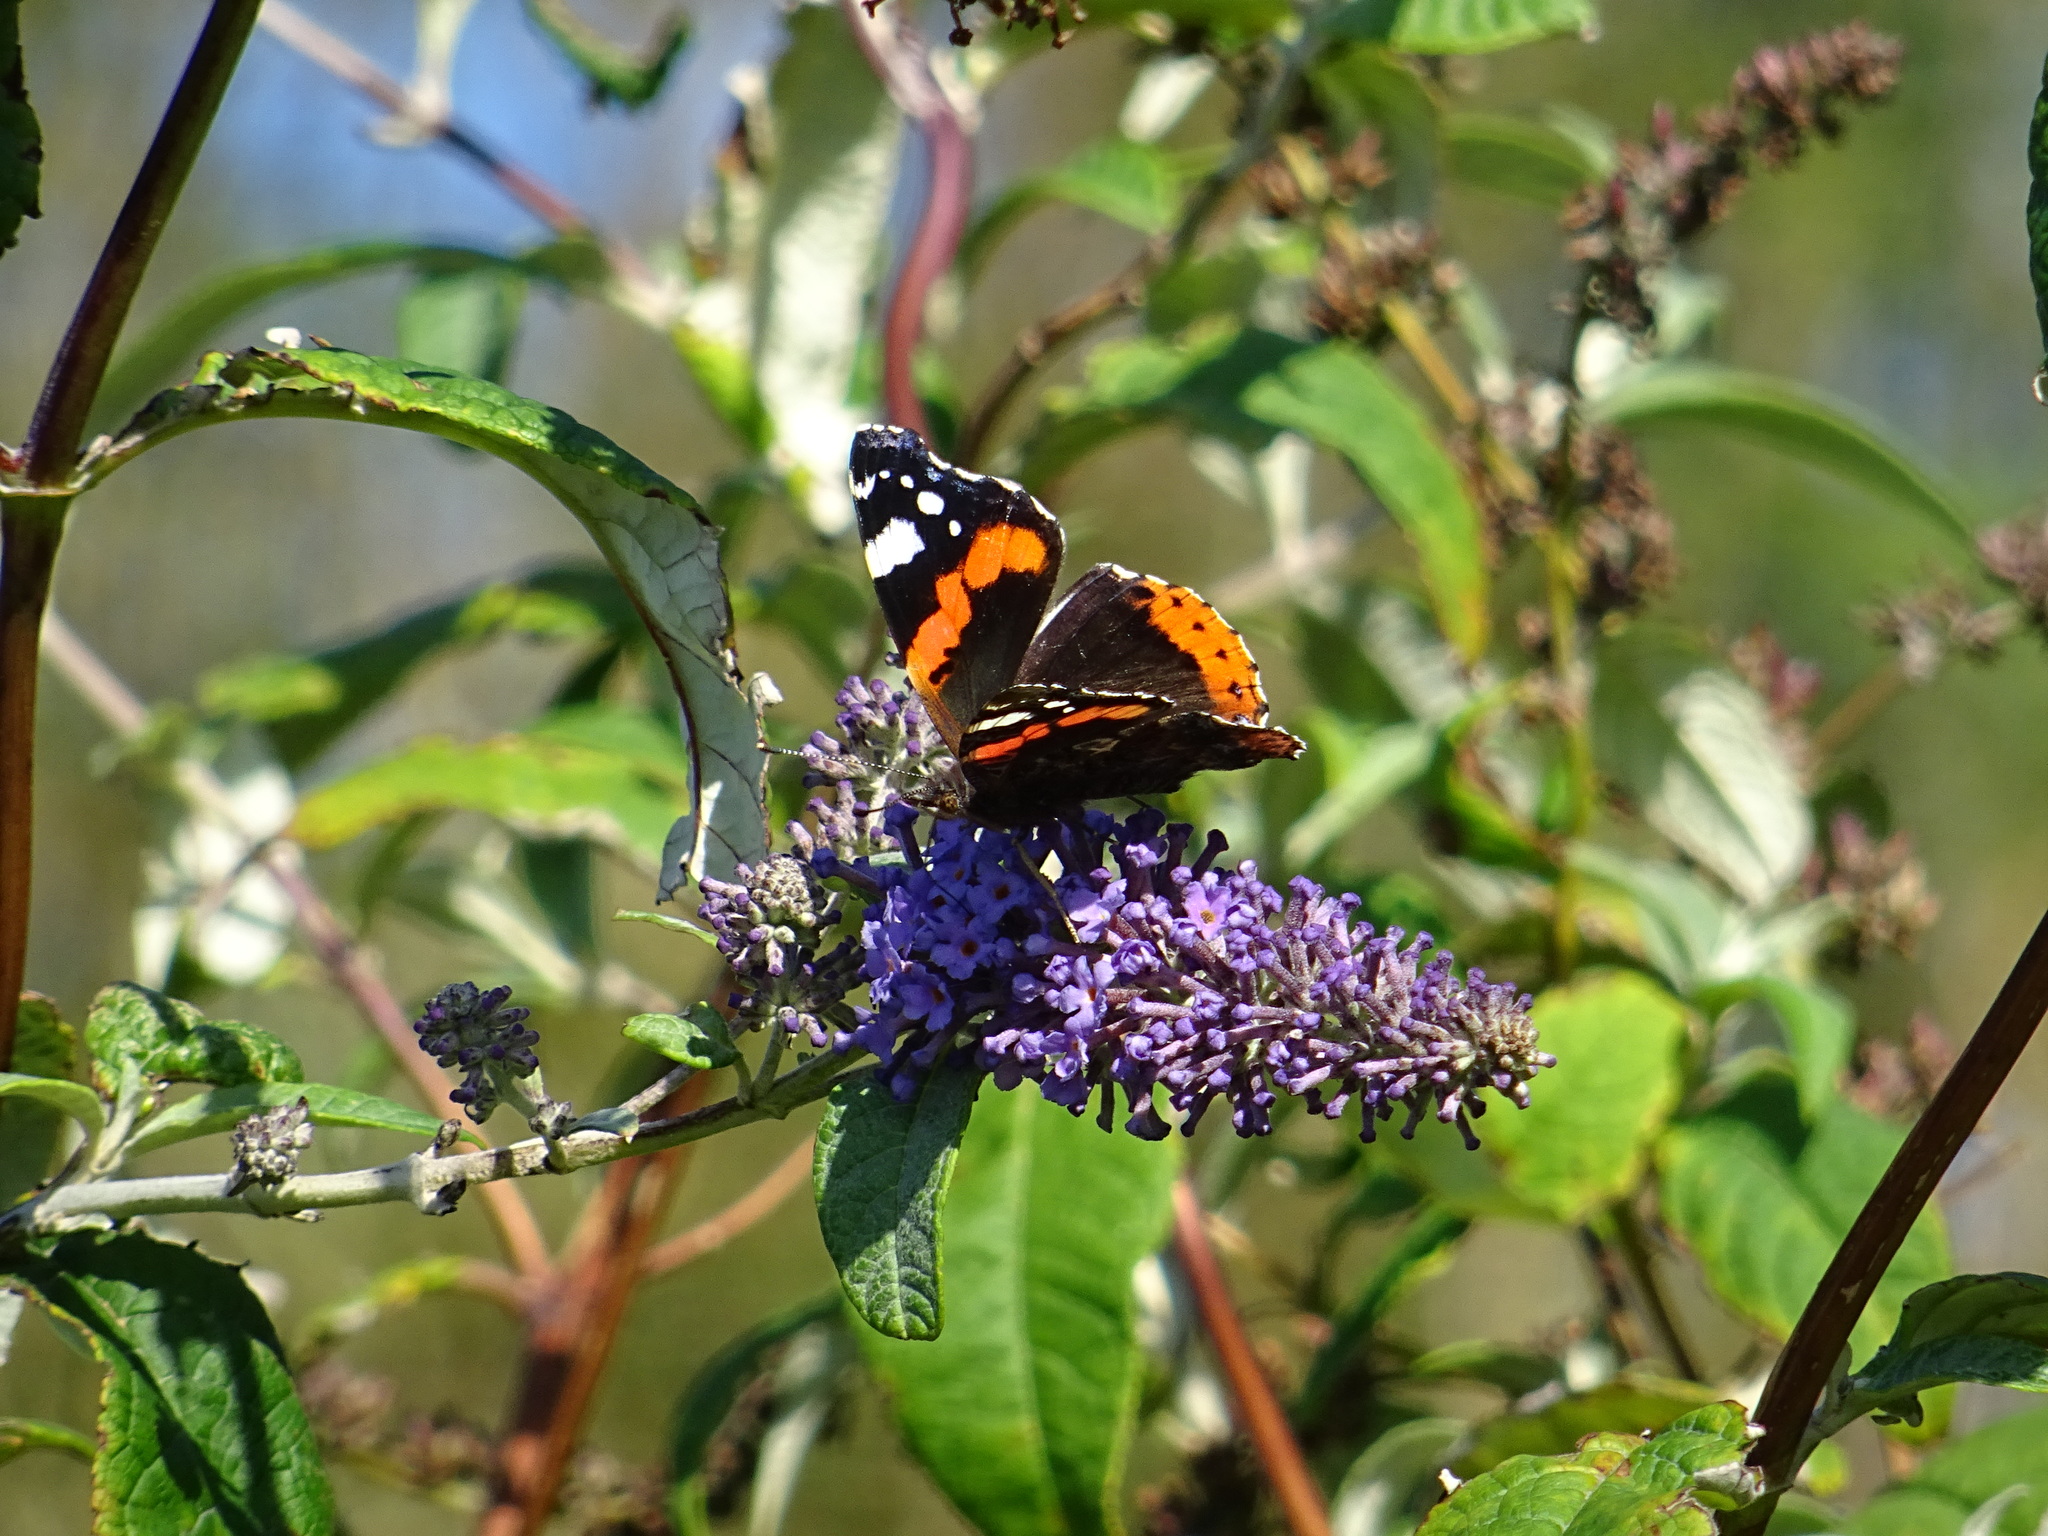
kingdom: Animalia
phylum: Arthropoda
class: Insecta
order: Lepidoptera
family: Nymphalidae
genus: Vanessa
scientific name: Vanessa atalanta
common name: Red admiral
